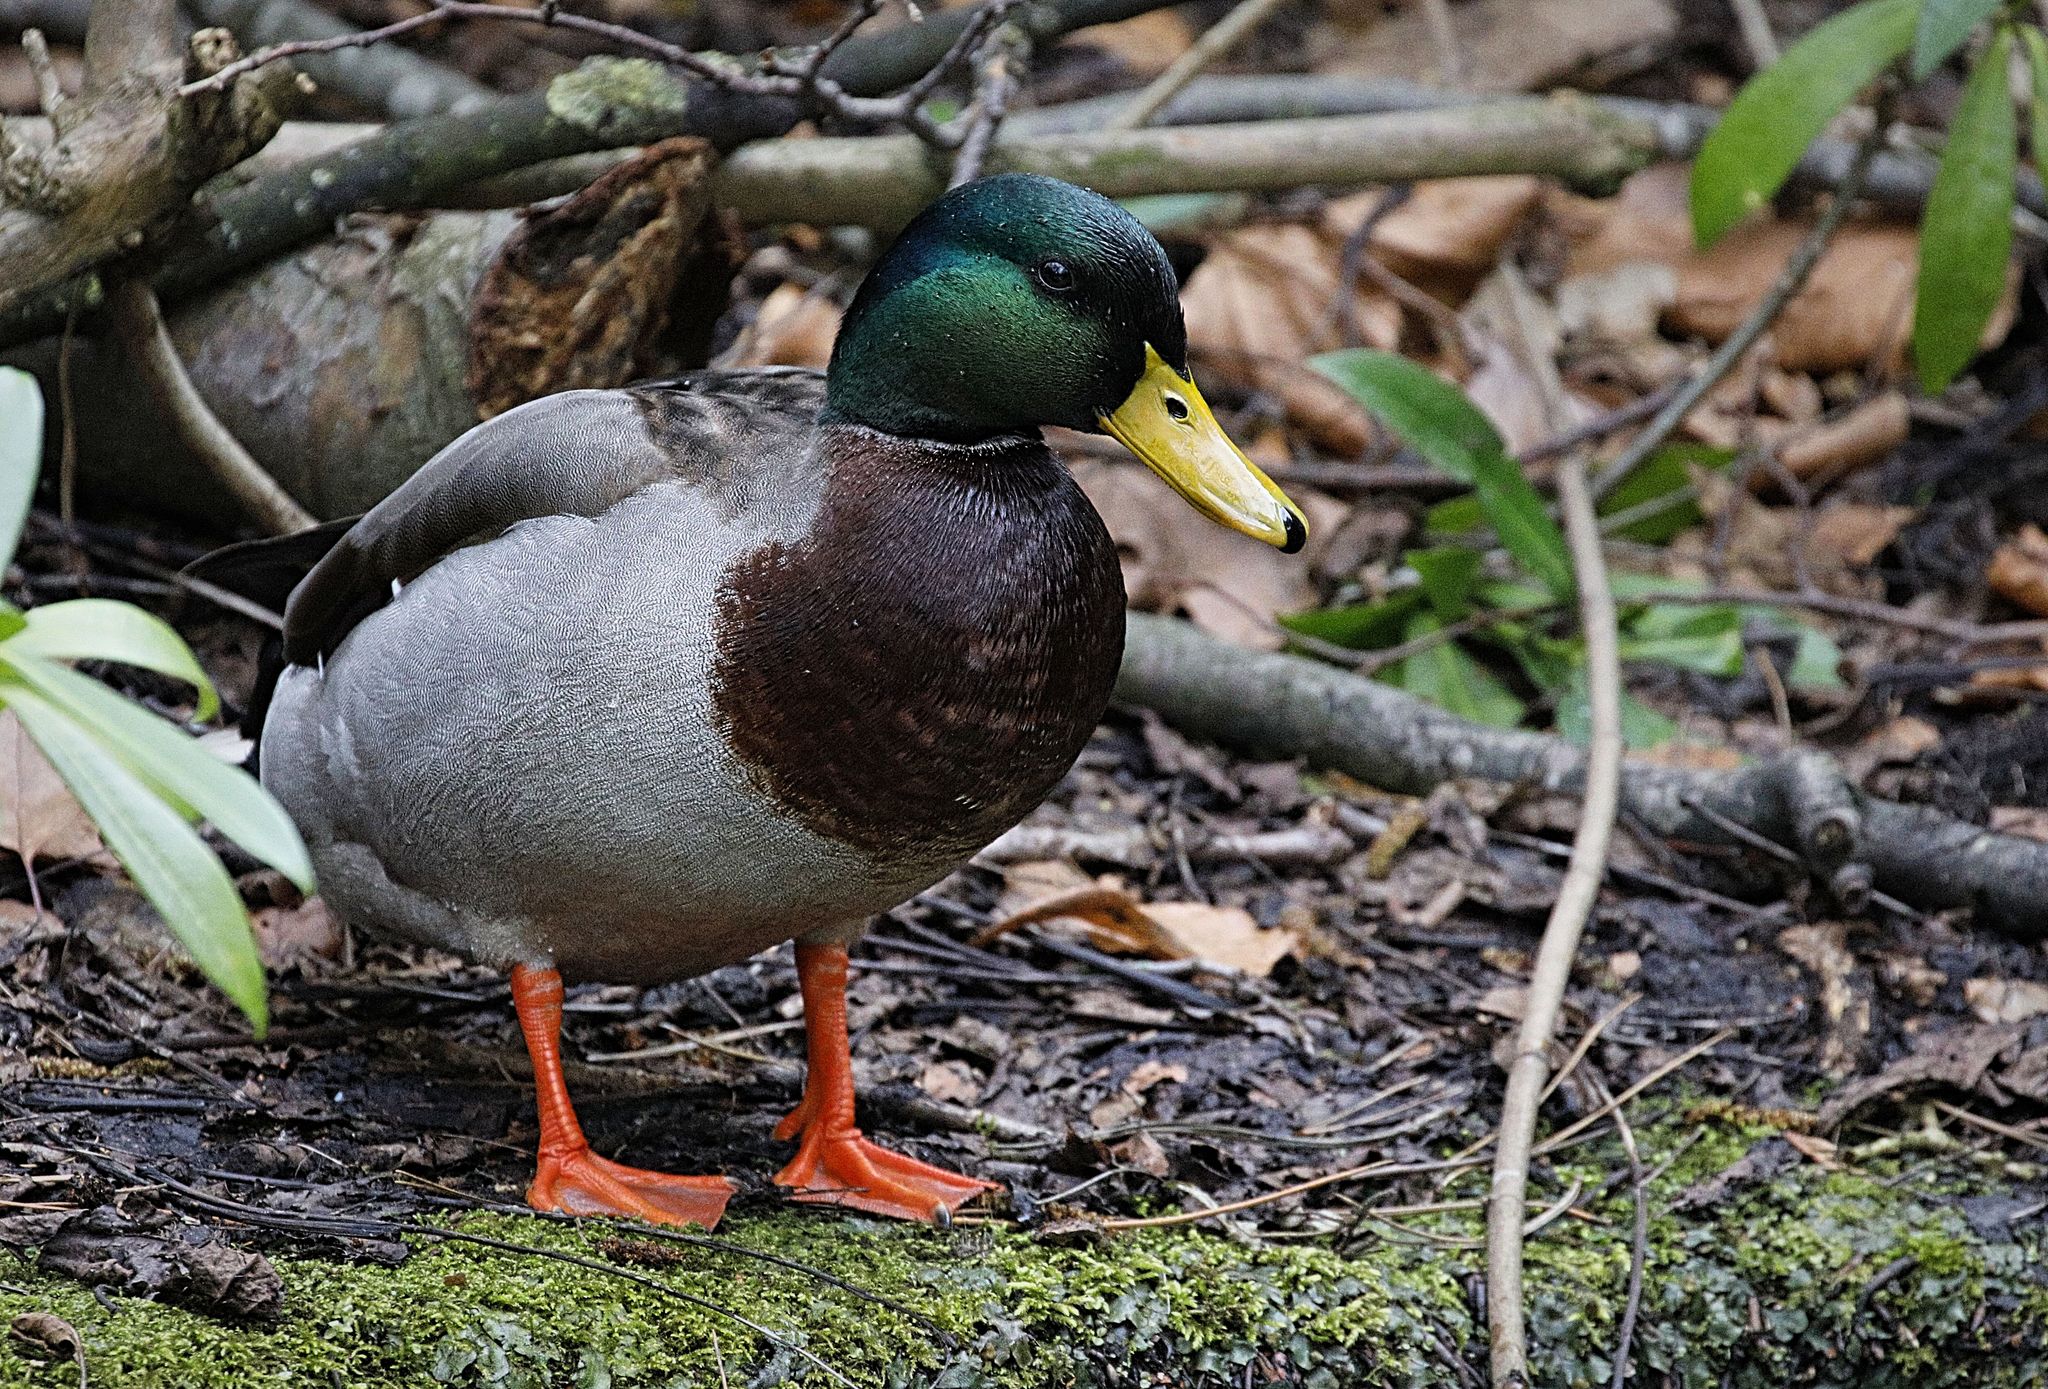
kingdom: Animalia
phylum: Chordata
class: Aves
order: Anseriformes
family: Anatidae
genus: Anas
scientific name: Anas platyrhynchos
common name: Mallard
